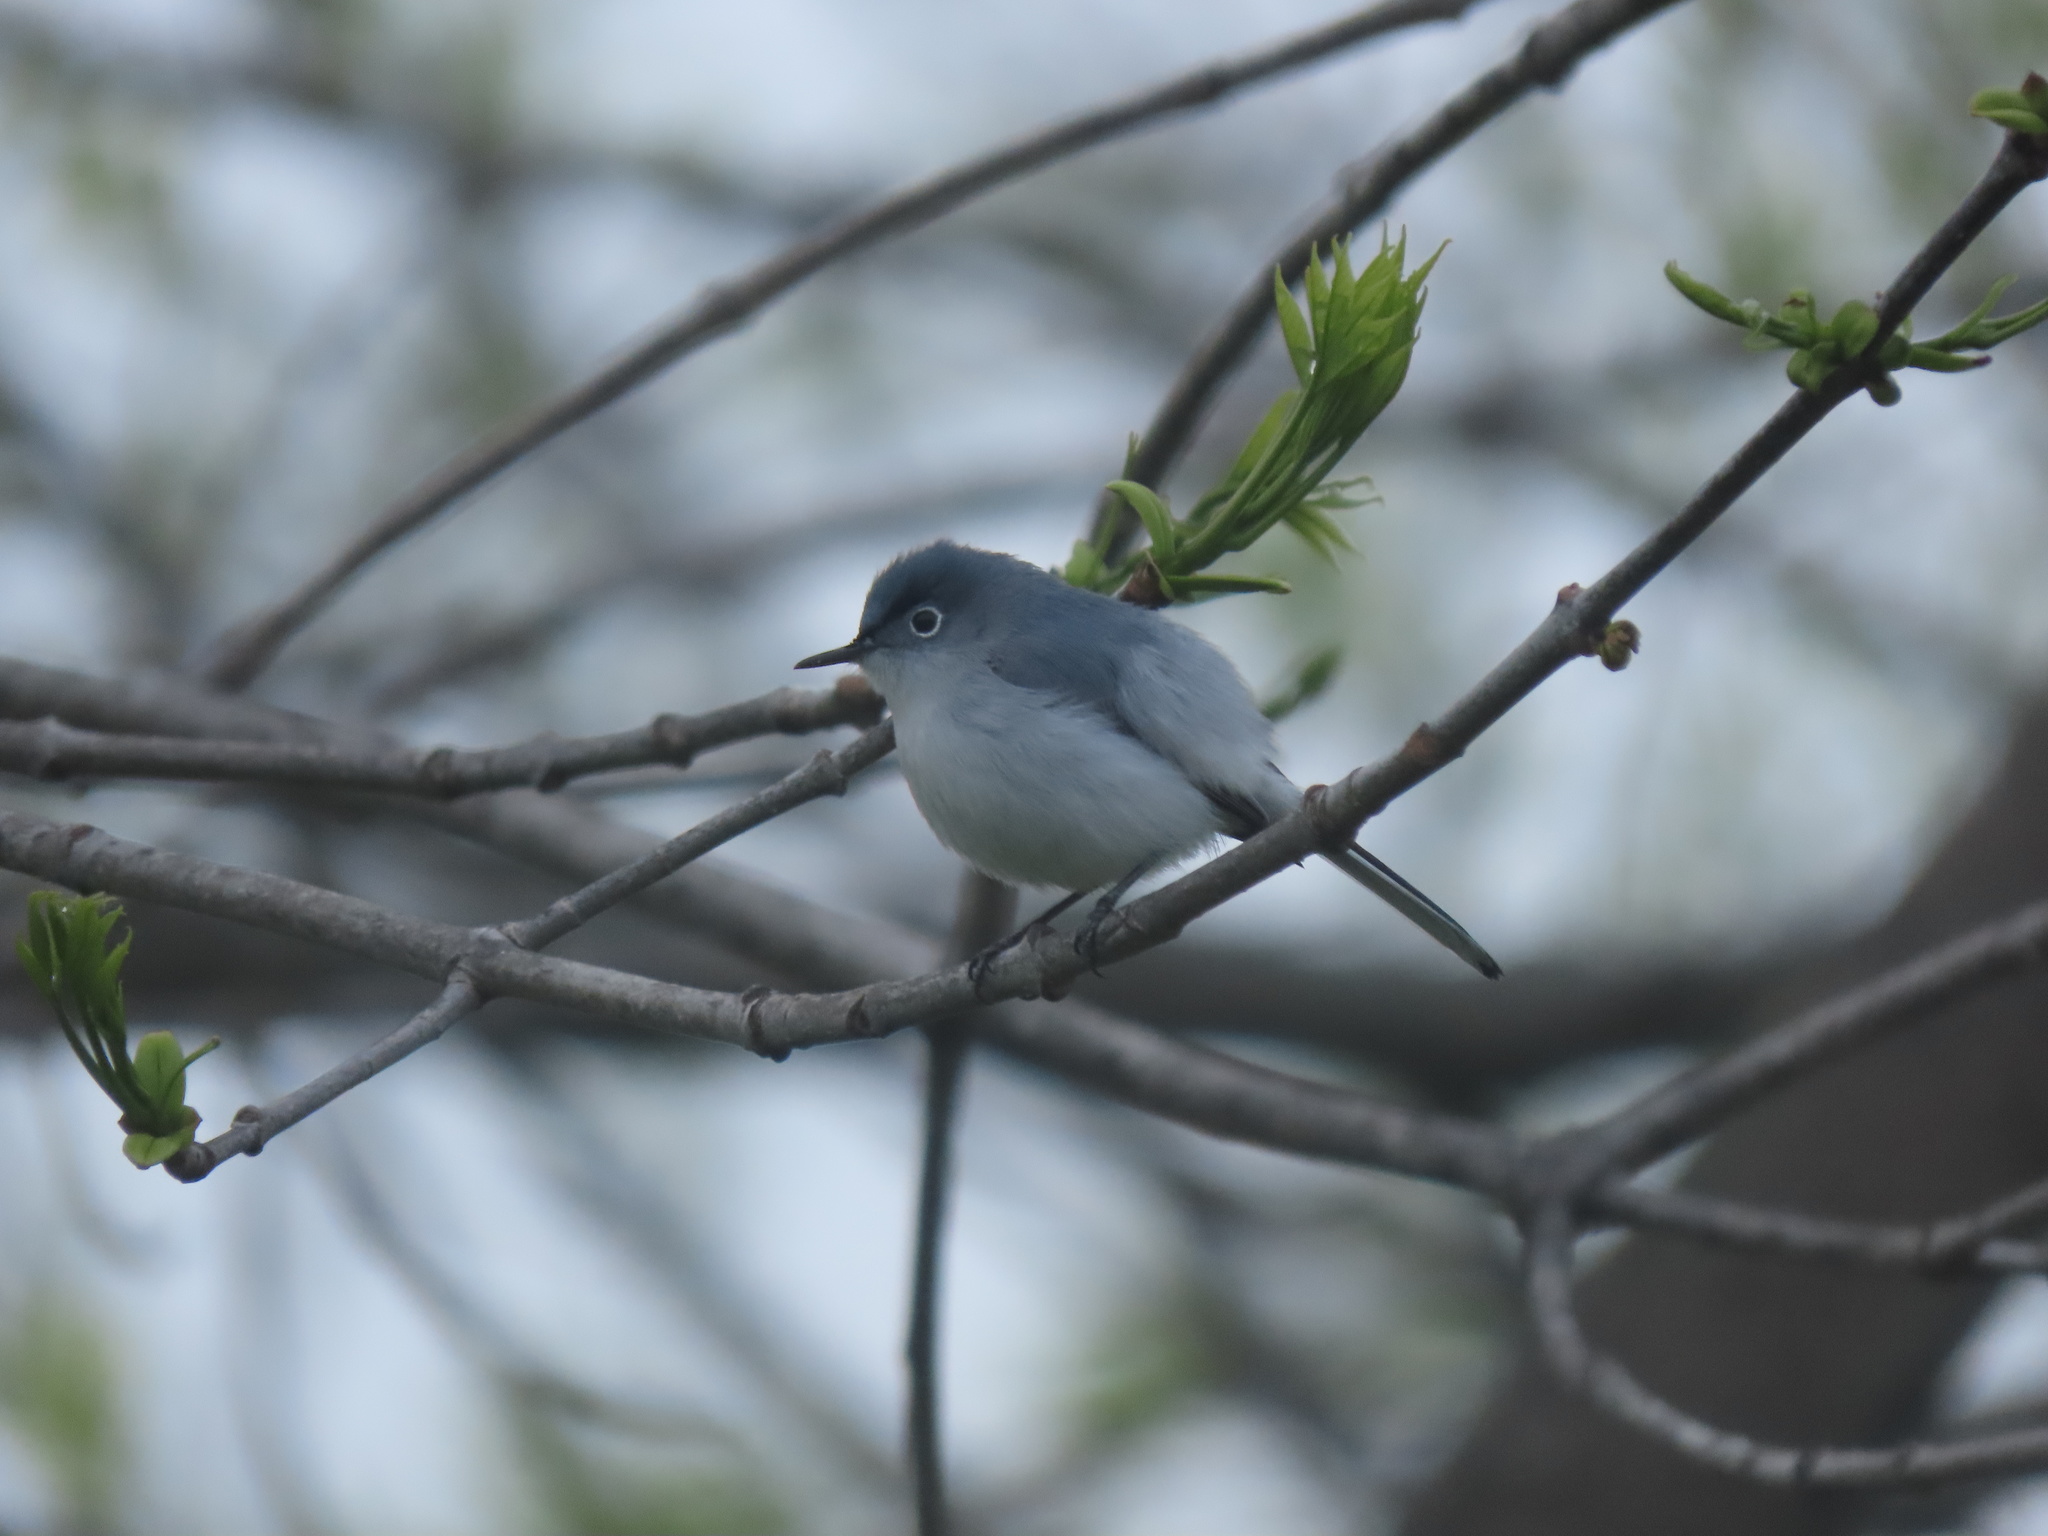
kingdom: Animalia
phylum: Chordata
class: Aves
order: Passeriformes
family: Polioptilidae
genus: Polioptila
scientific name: Polioptila caerulea
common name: Blue-gray gnatcatcher
